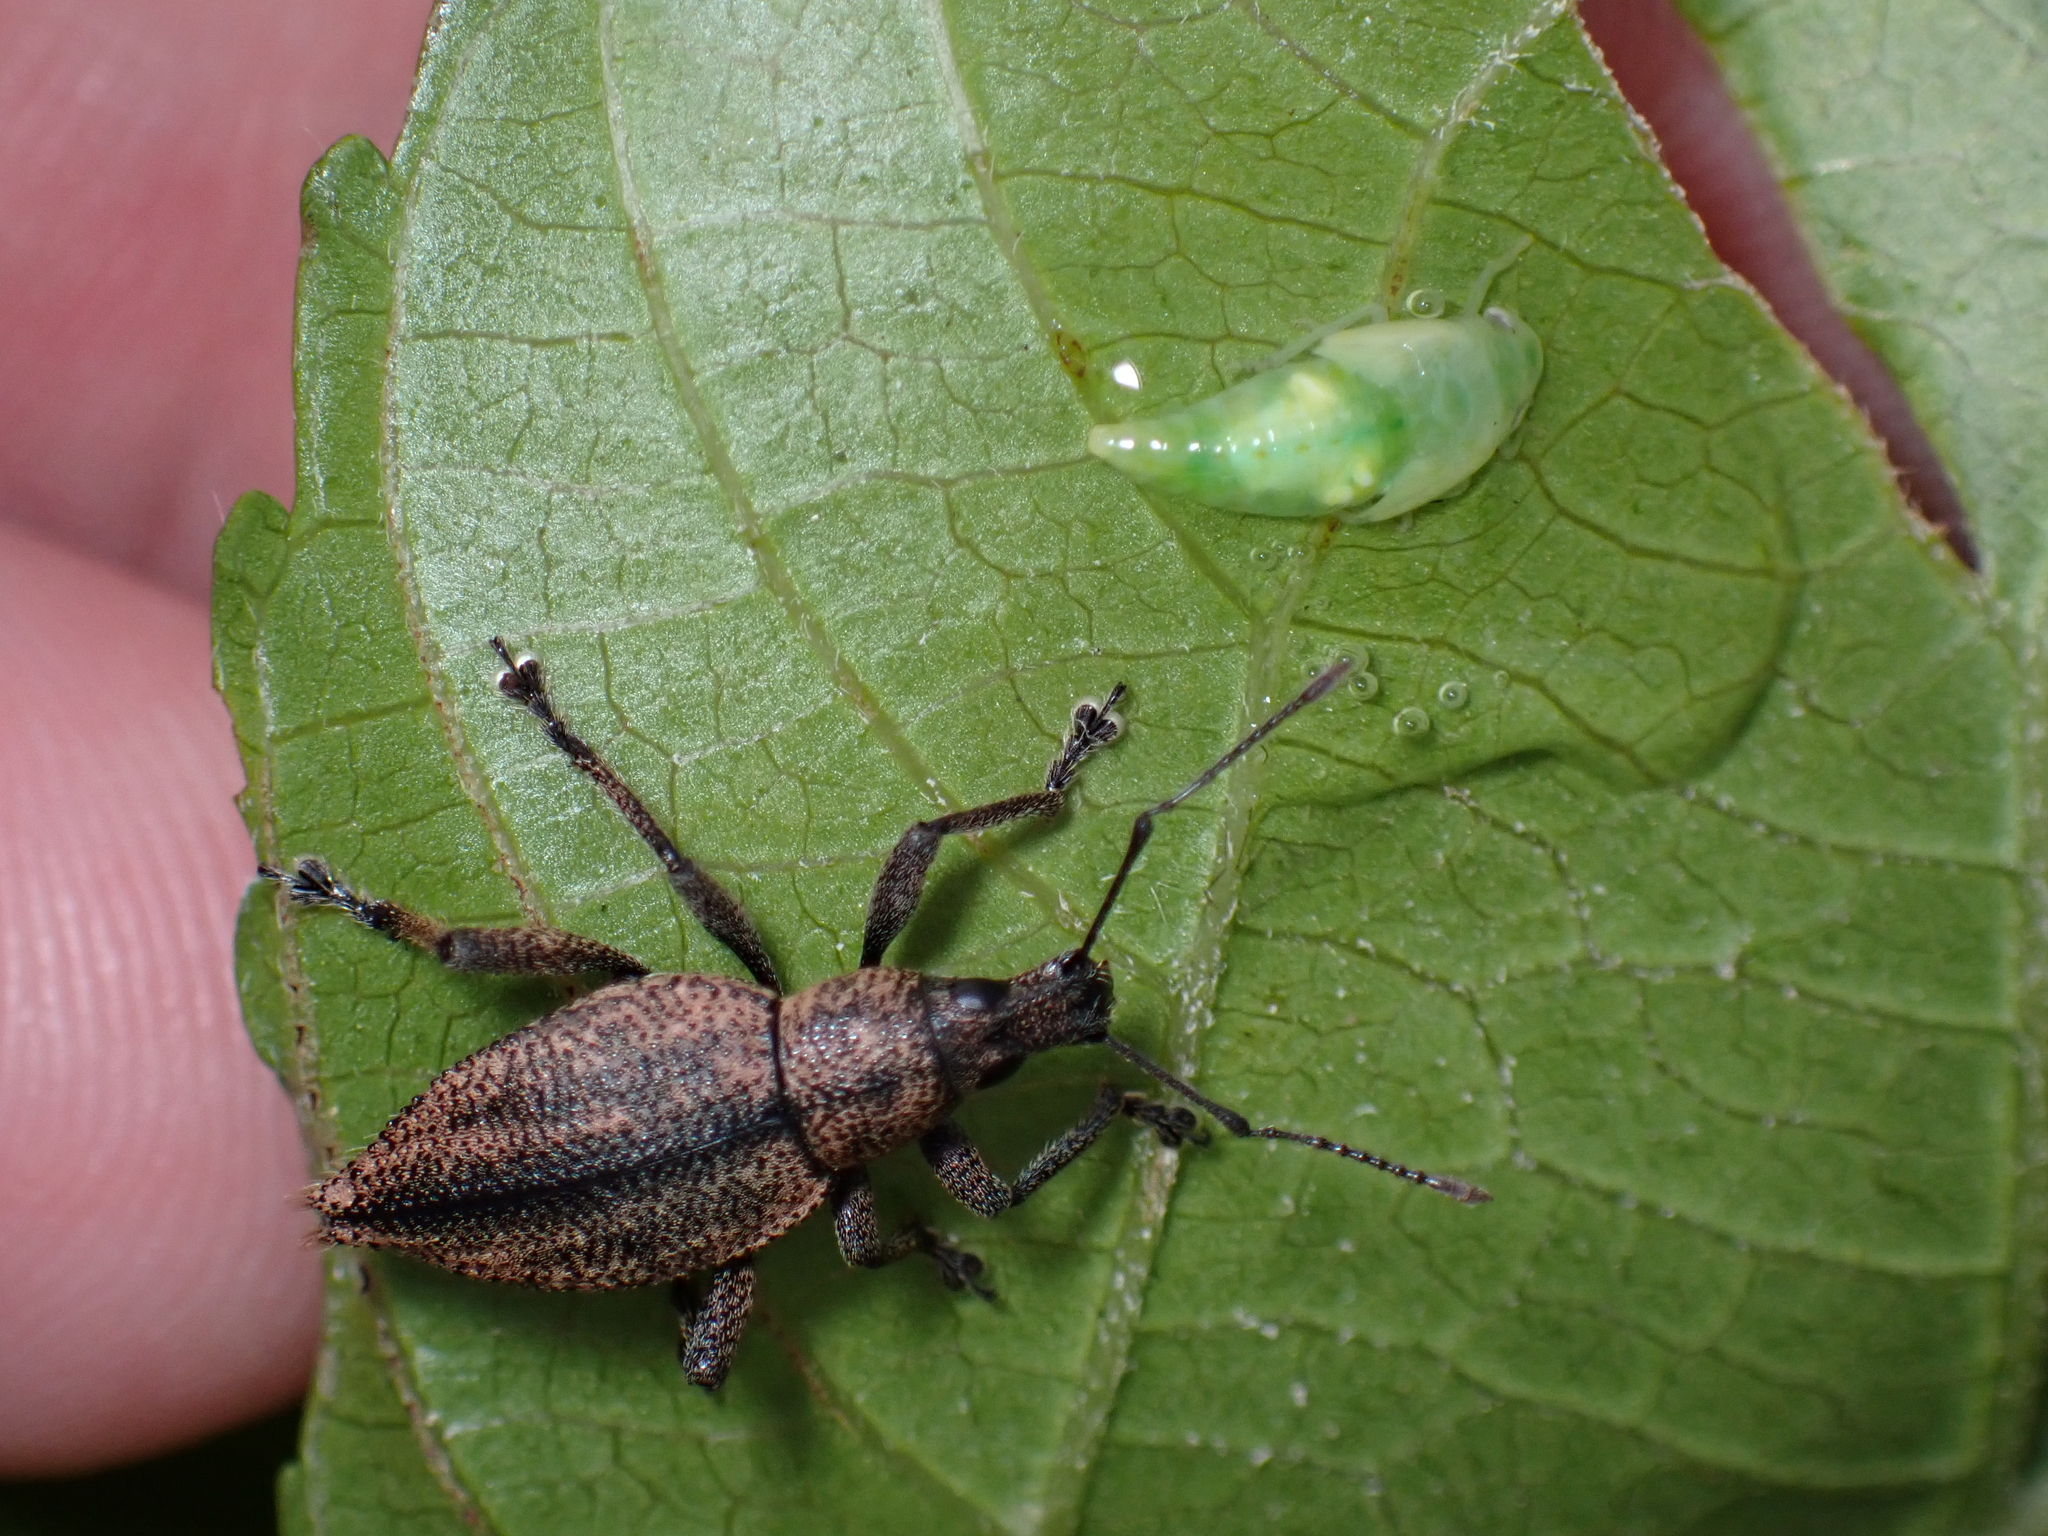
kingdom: Animalia
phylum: Arthropoda
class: Insecta
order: Coleoptera
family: Curculionidae
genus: Elytrurus
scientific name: Elytrurus serrulatus
